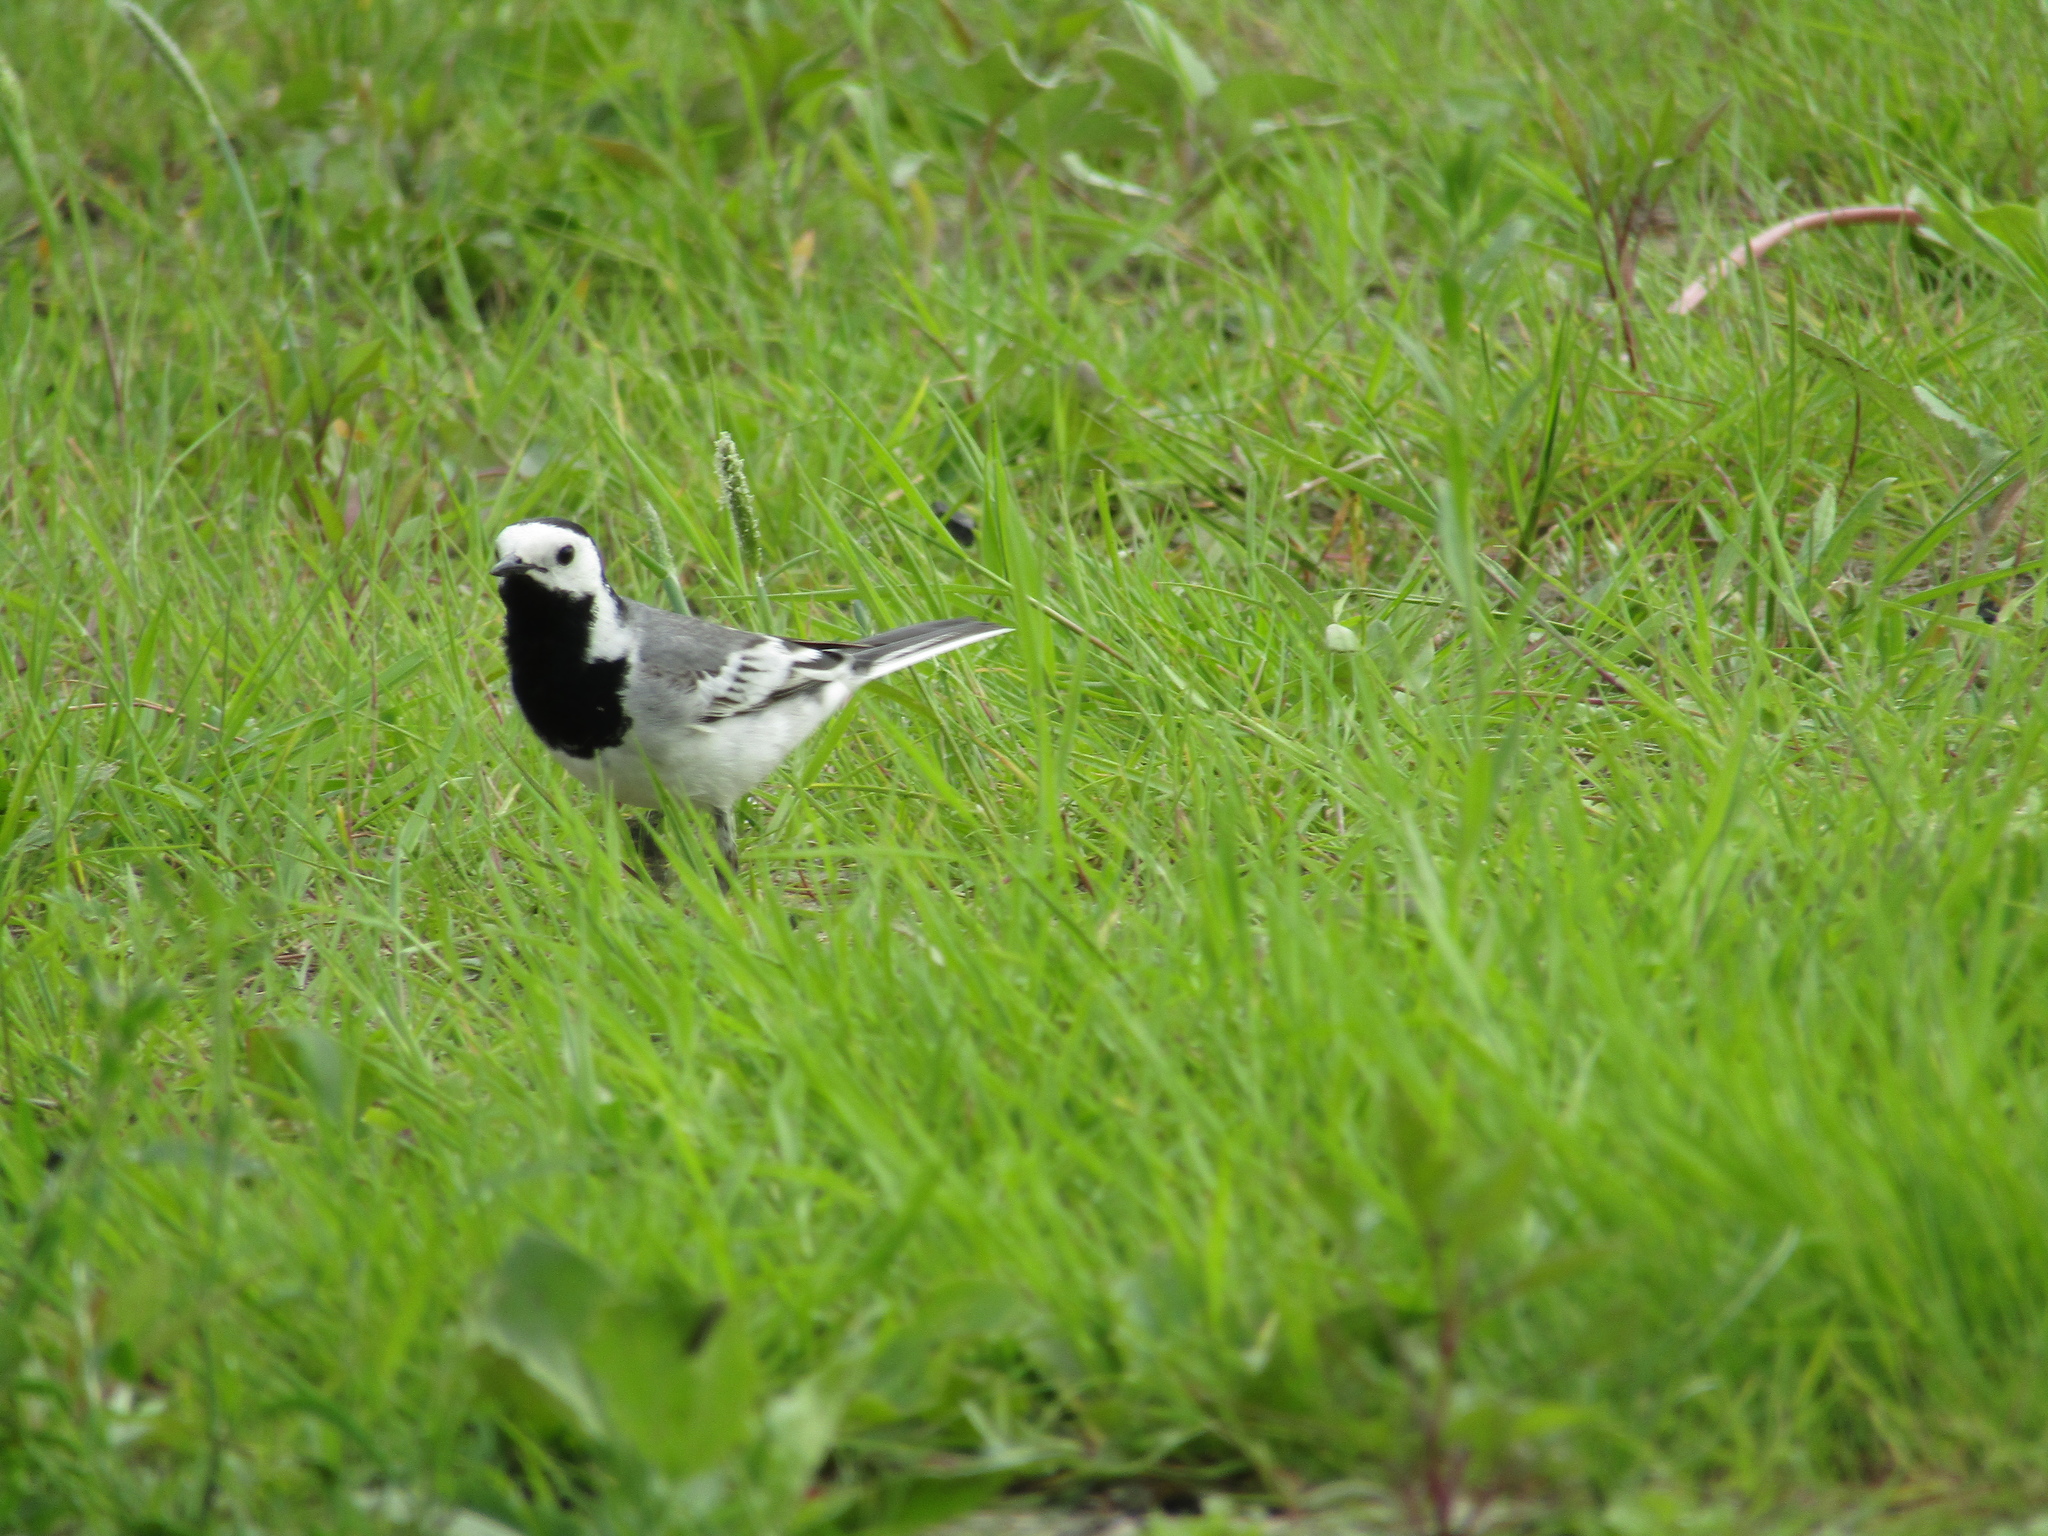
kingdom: Animalia
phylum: Chordata
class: Aves
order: Passeriformes
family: Motacillidae
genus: Motacilla
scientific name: Motacilla alba
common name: White wagtail
